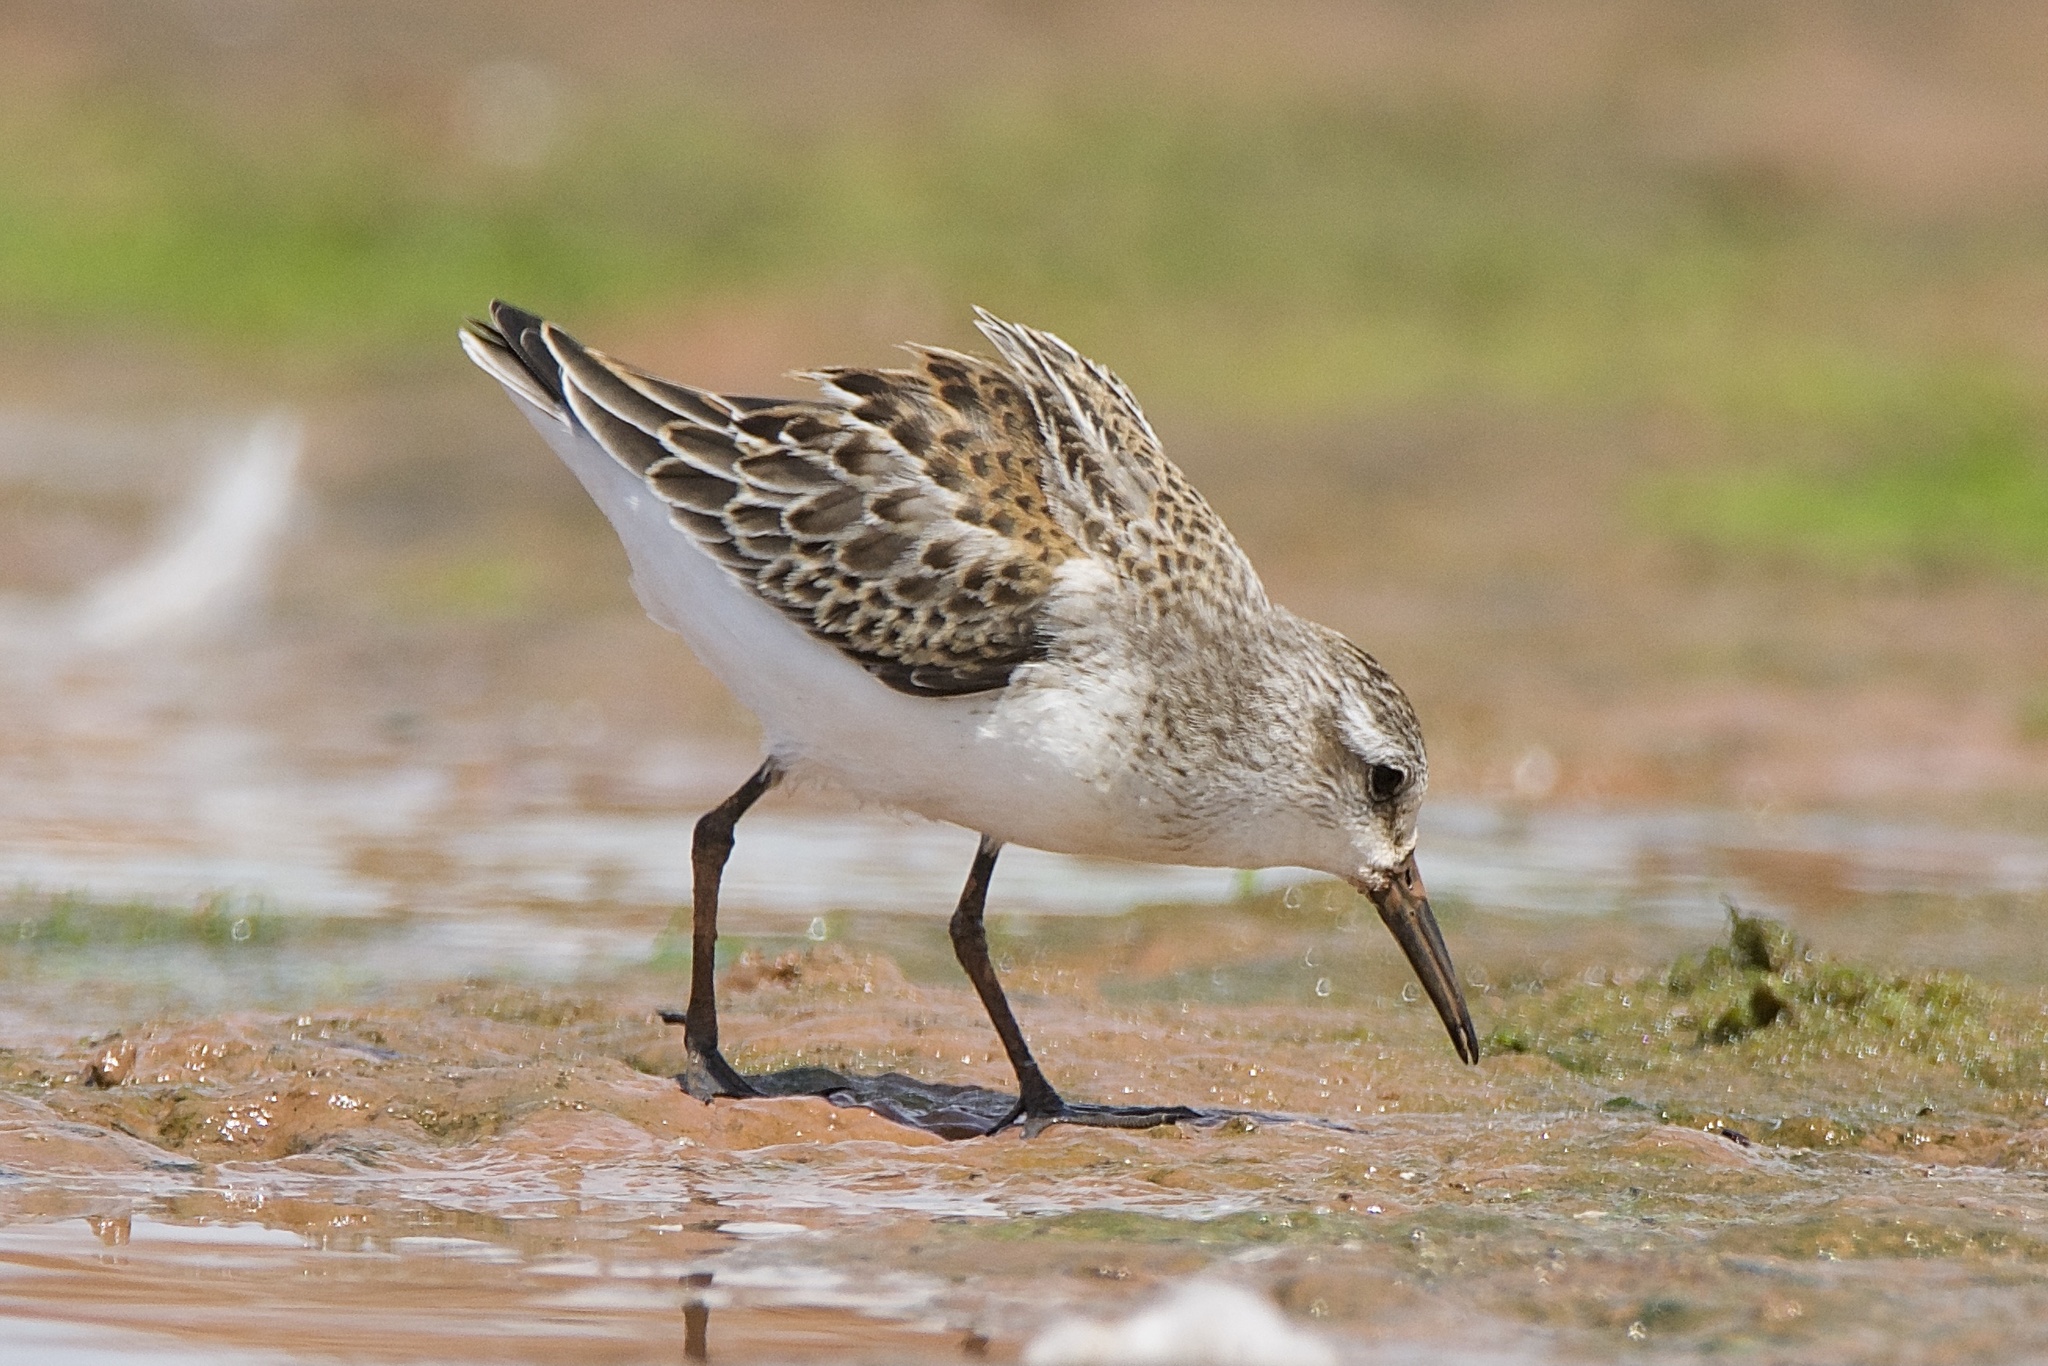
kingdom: Animalia
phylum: Chordata
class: Aves
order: Charadriiformes
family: Scolopacidae
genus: Calidris
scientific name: Calidris mauri
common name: Western sandpiper
